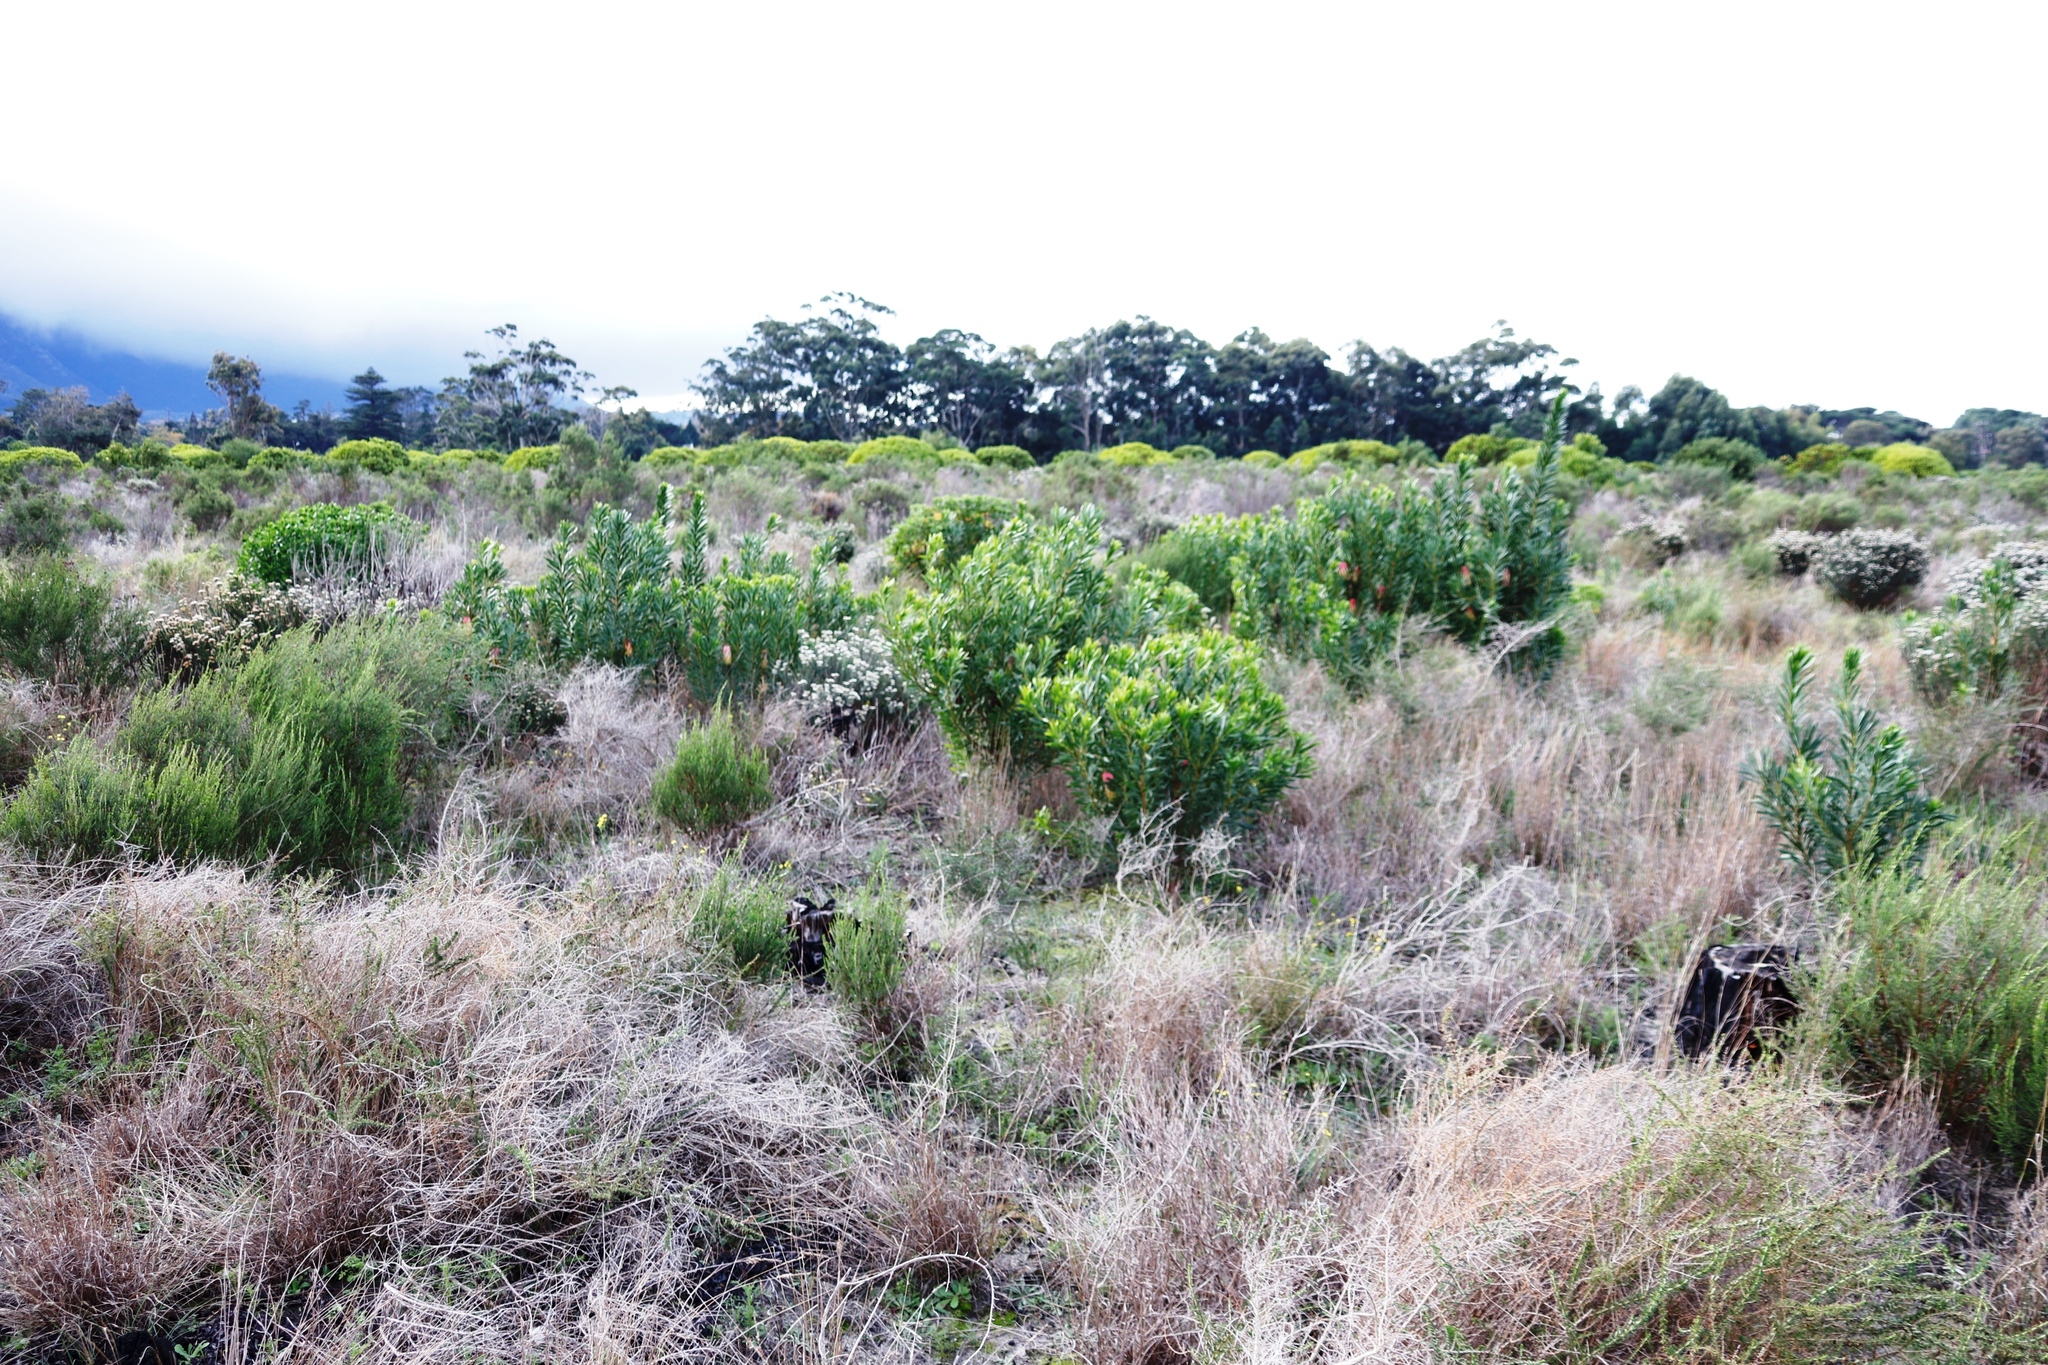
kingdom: Plantae
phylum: Tracheophyta
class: Magnoliopsida
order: Proteales
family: Proteaceae
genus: Protea
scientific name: Protea repens
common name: Sugarbush
